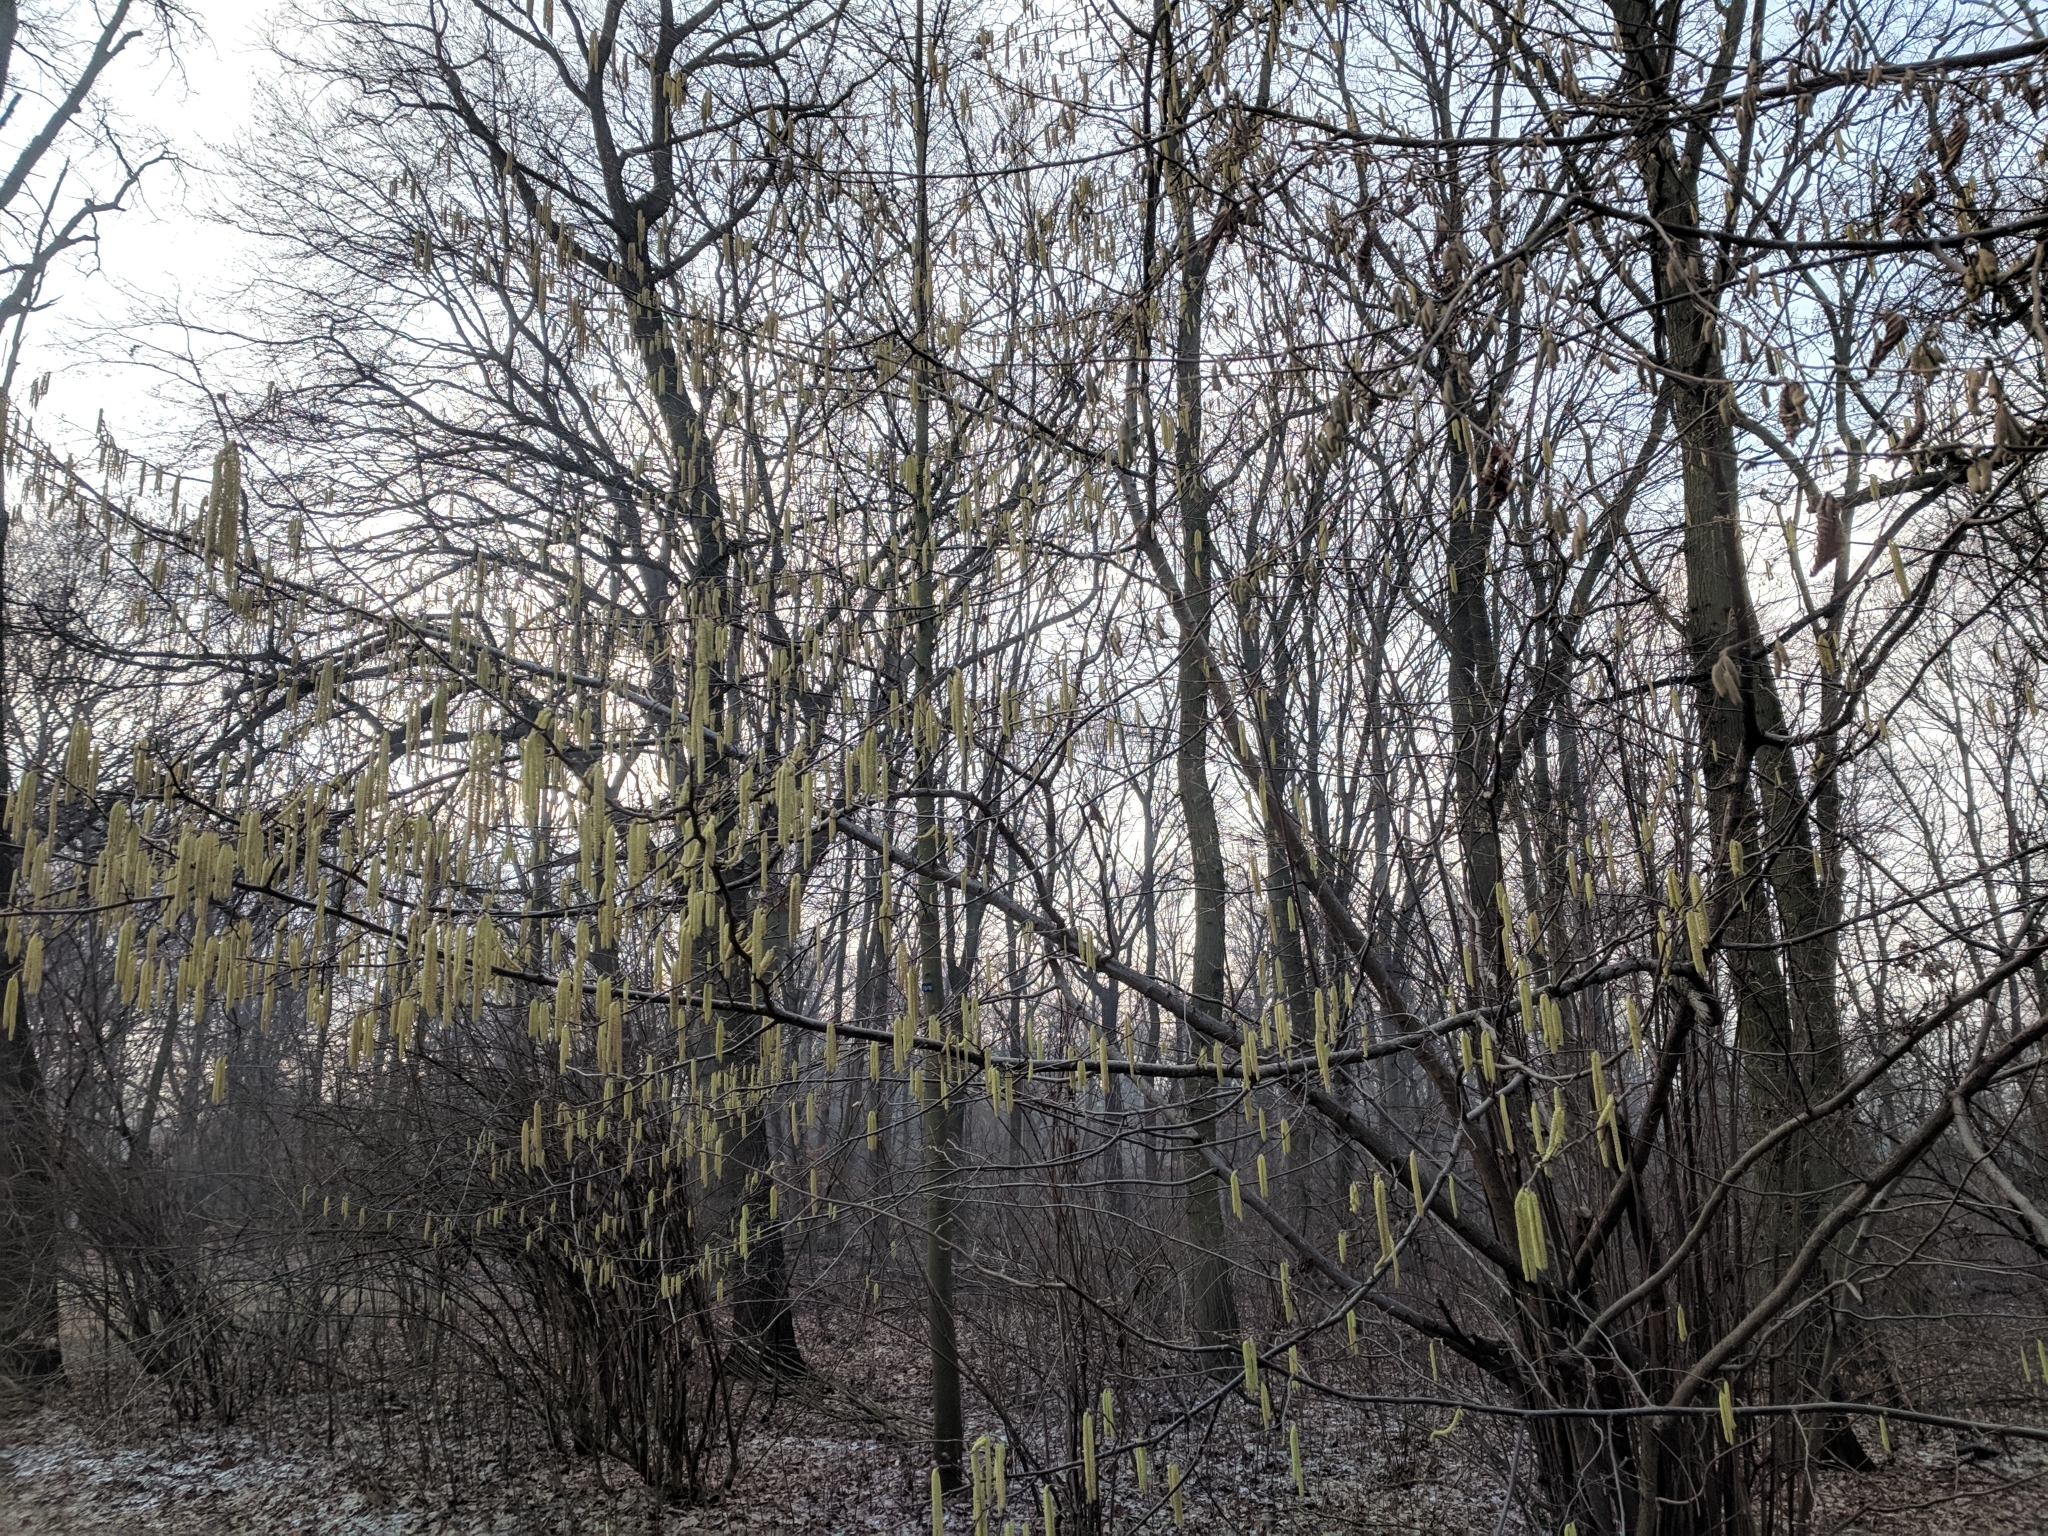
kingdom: Plantae
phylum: Tracheophyta
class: Magnoliopsida
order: Fagales
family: Betulaceae
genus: Corylus
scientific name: Corylus avellana
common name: European hazel
